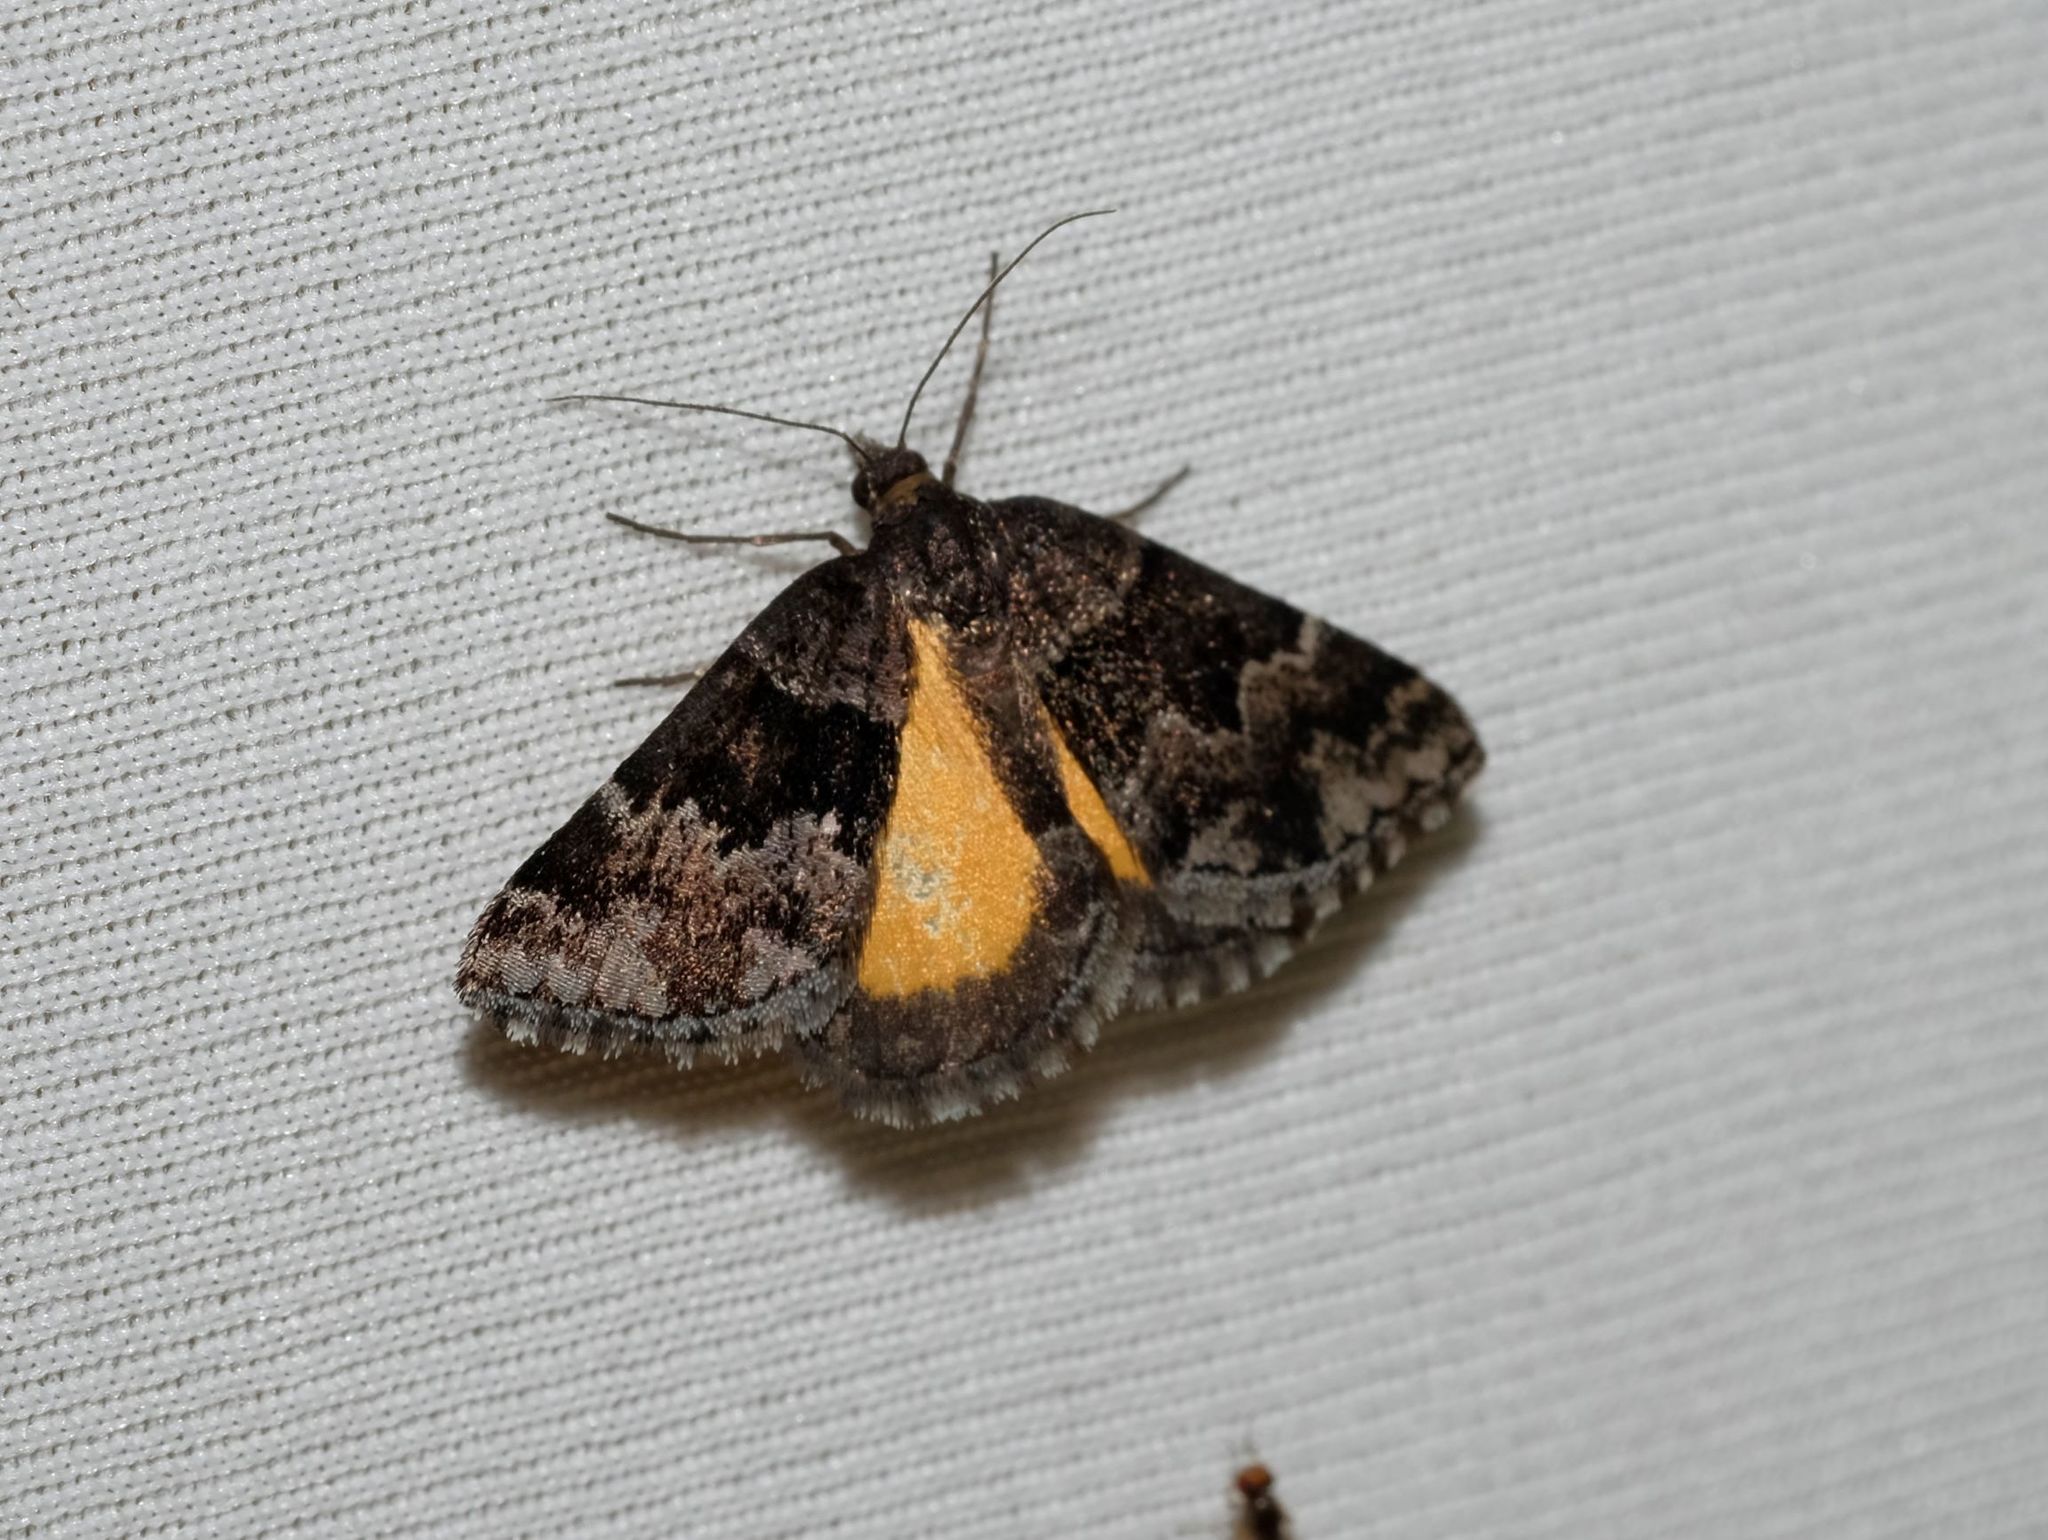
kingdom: Animalia
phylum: Arthropoda
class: Insecta
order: Lepidoptera
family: Geometridae
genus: Dichromodes
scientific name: Dichromodes ainaria
